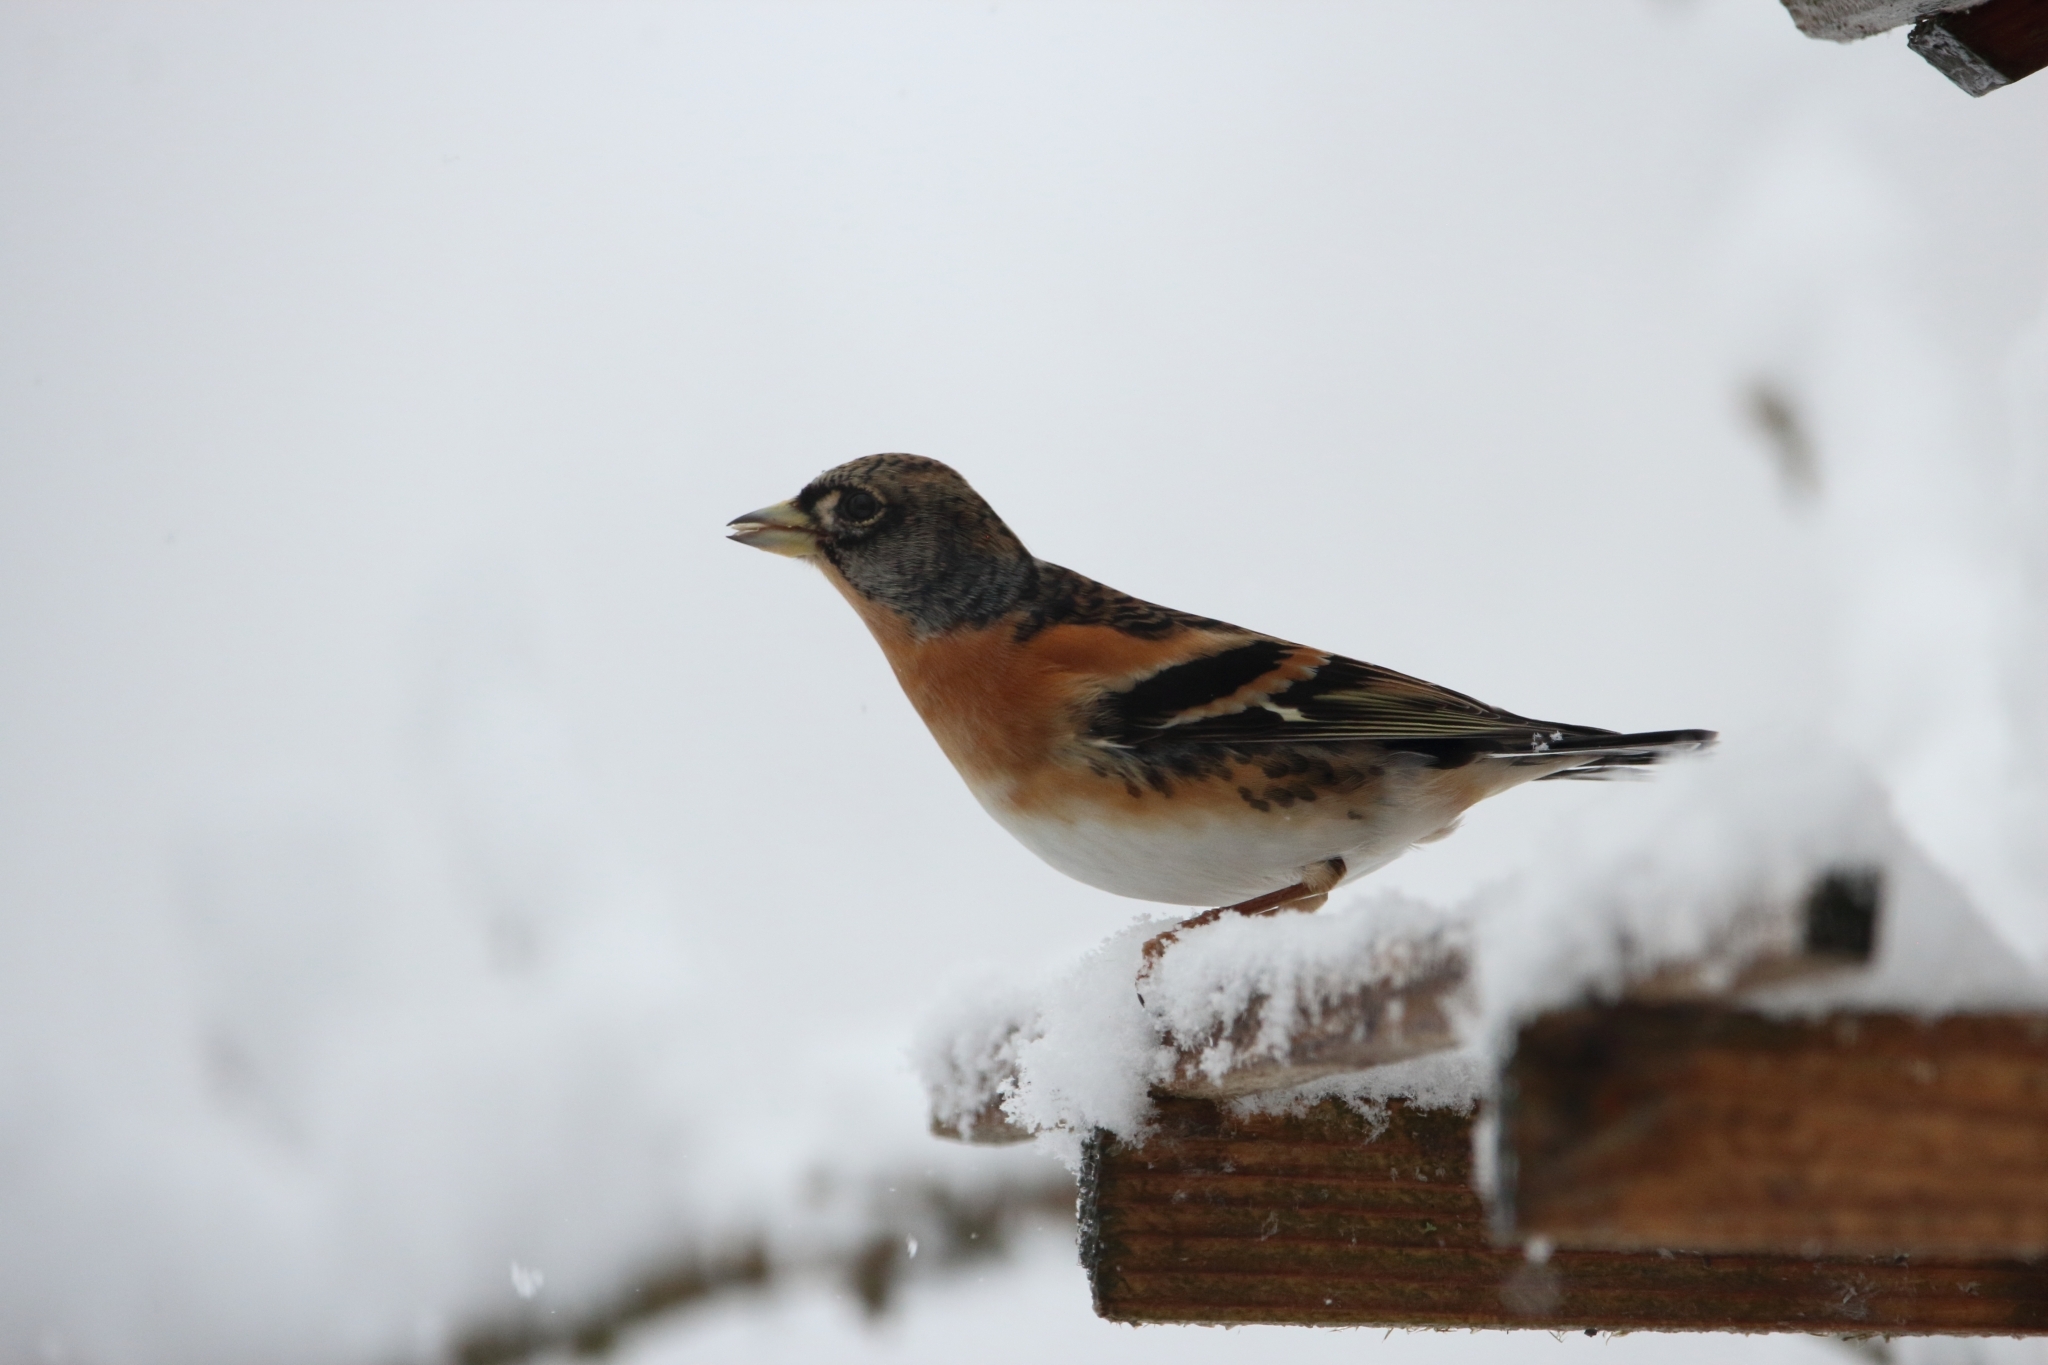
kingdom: Animalia
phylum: Chordata
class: Aves
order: Passeriformes
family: Fringillidae
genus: Fringilla
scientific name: Fringilla montifringilla
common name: Brambling
